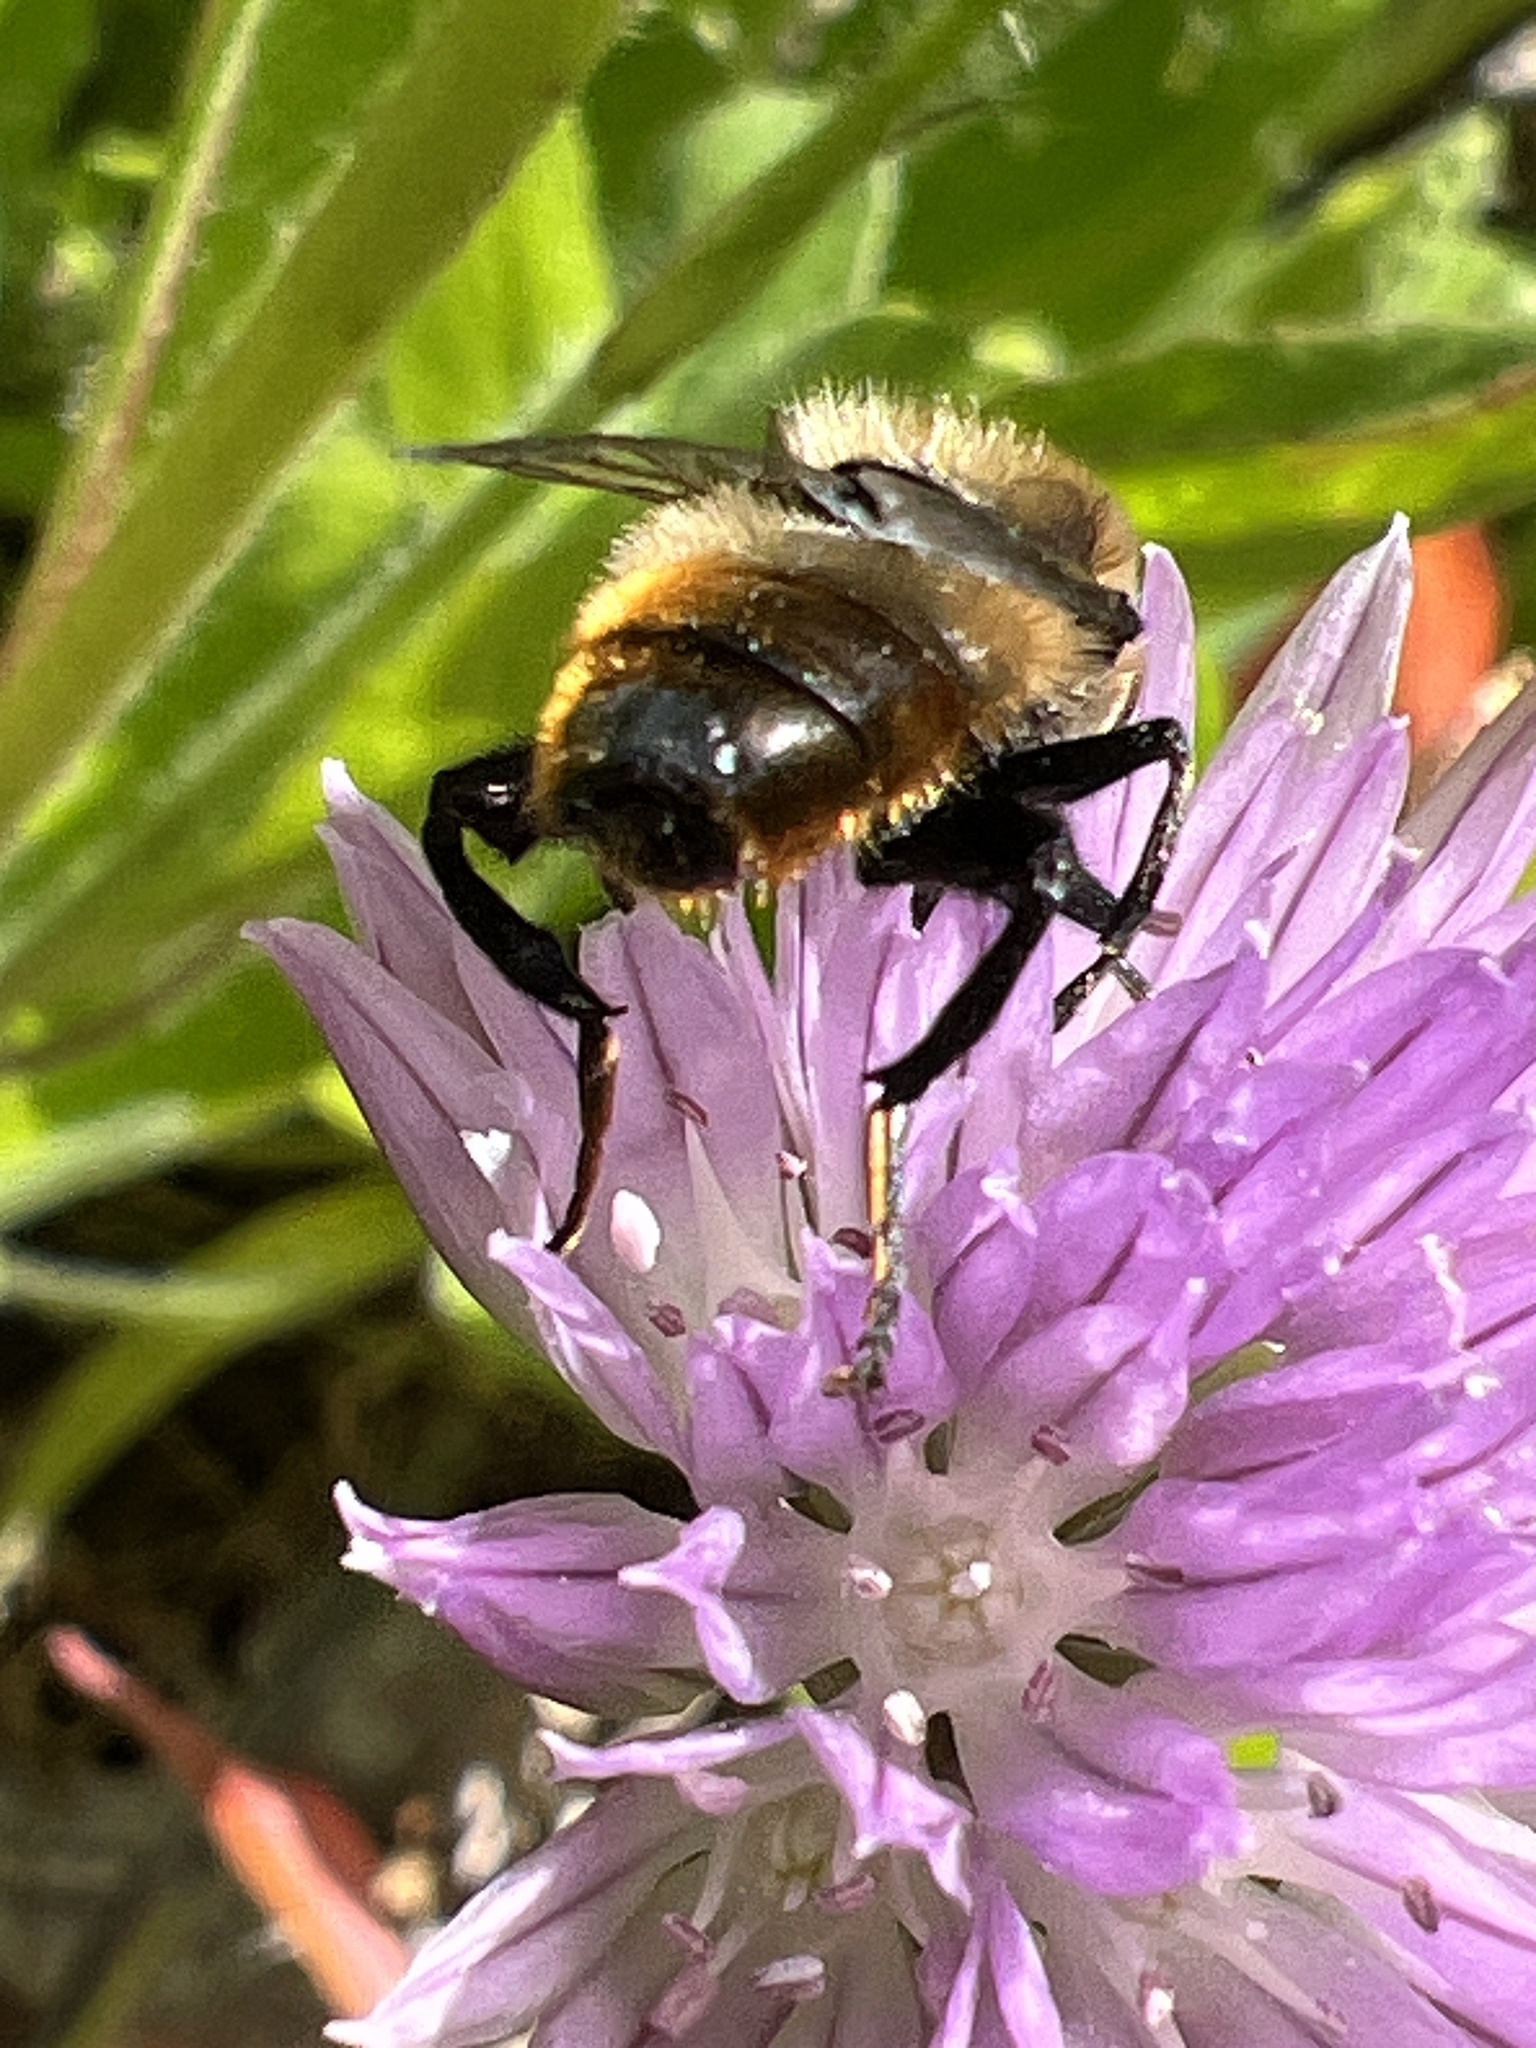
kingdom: Animalia
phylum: Arthropoda
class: Insecta
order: Diptera
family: Syrphidae
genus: Merodon
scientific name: Merodon equestris
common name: Greater bulb-fly
